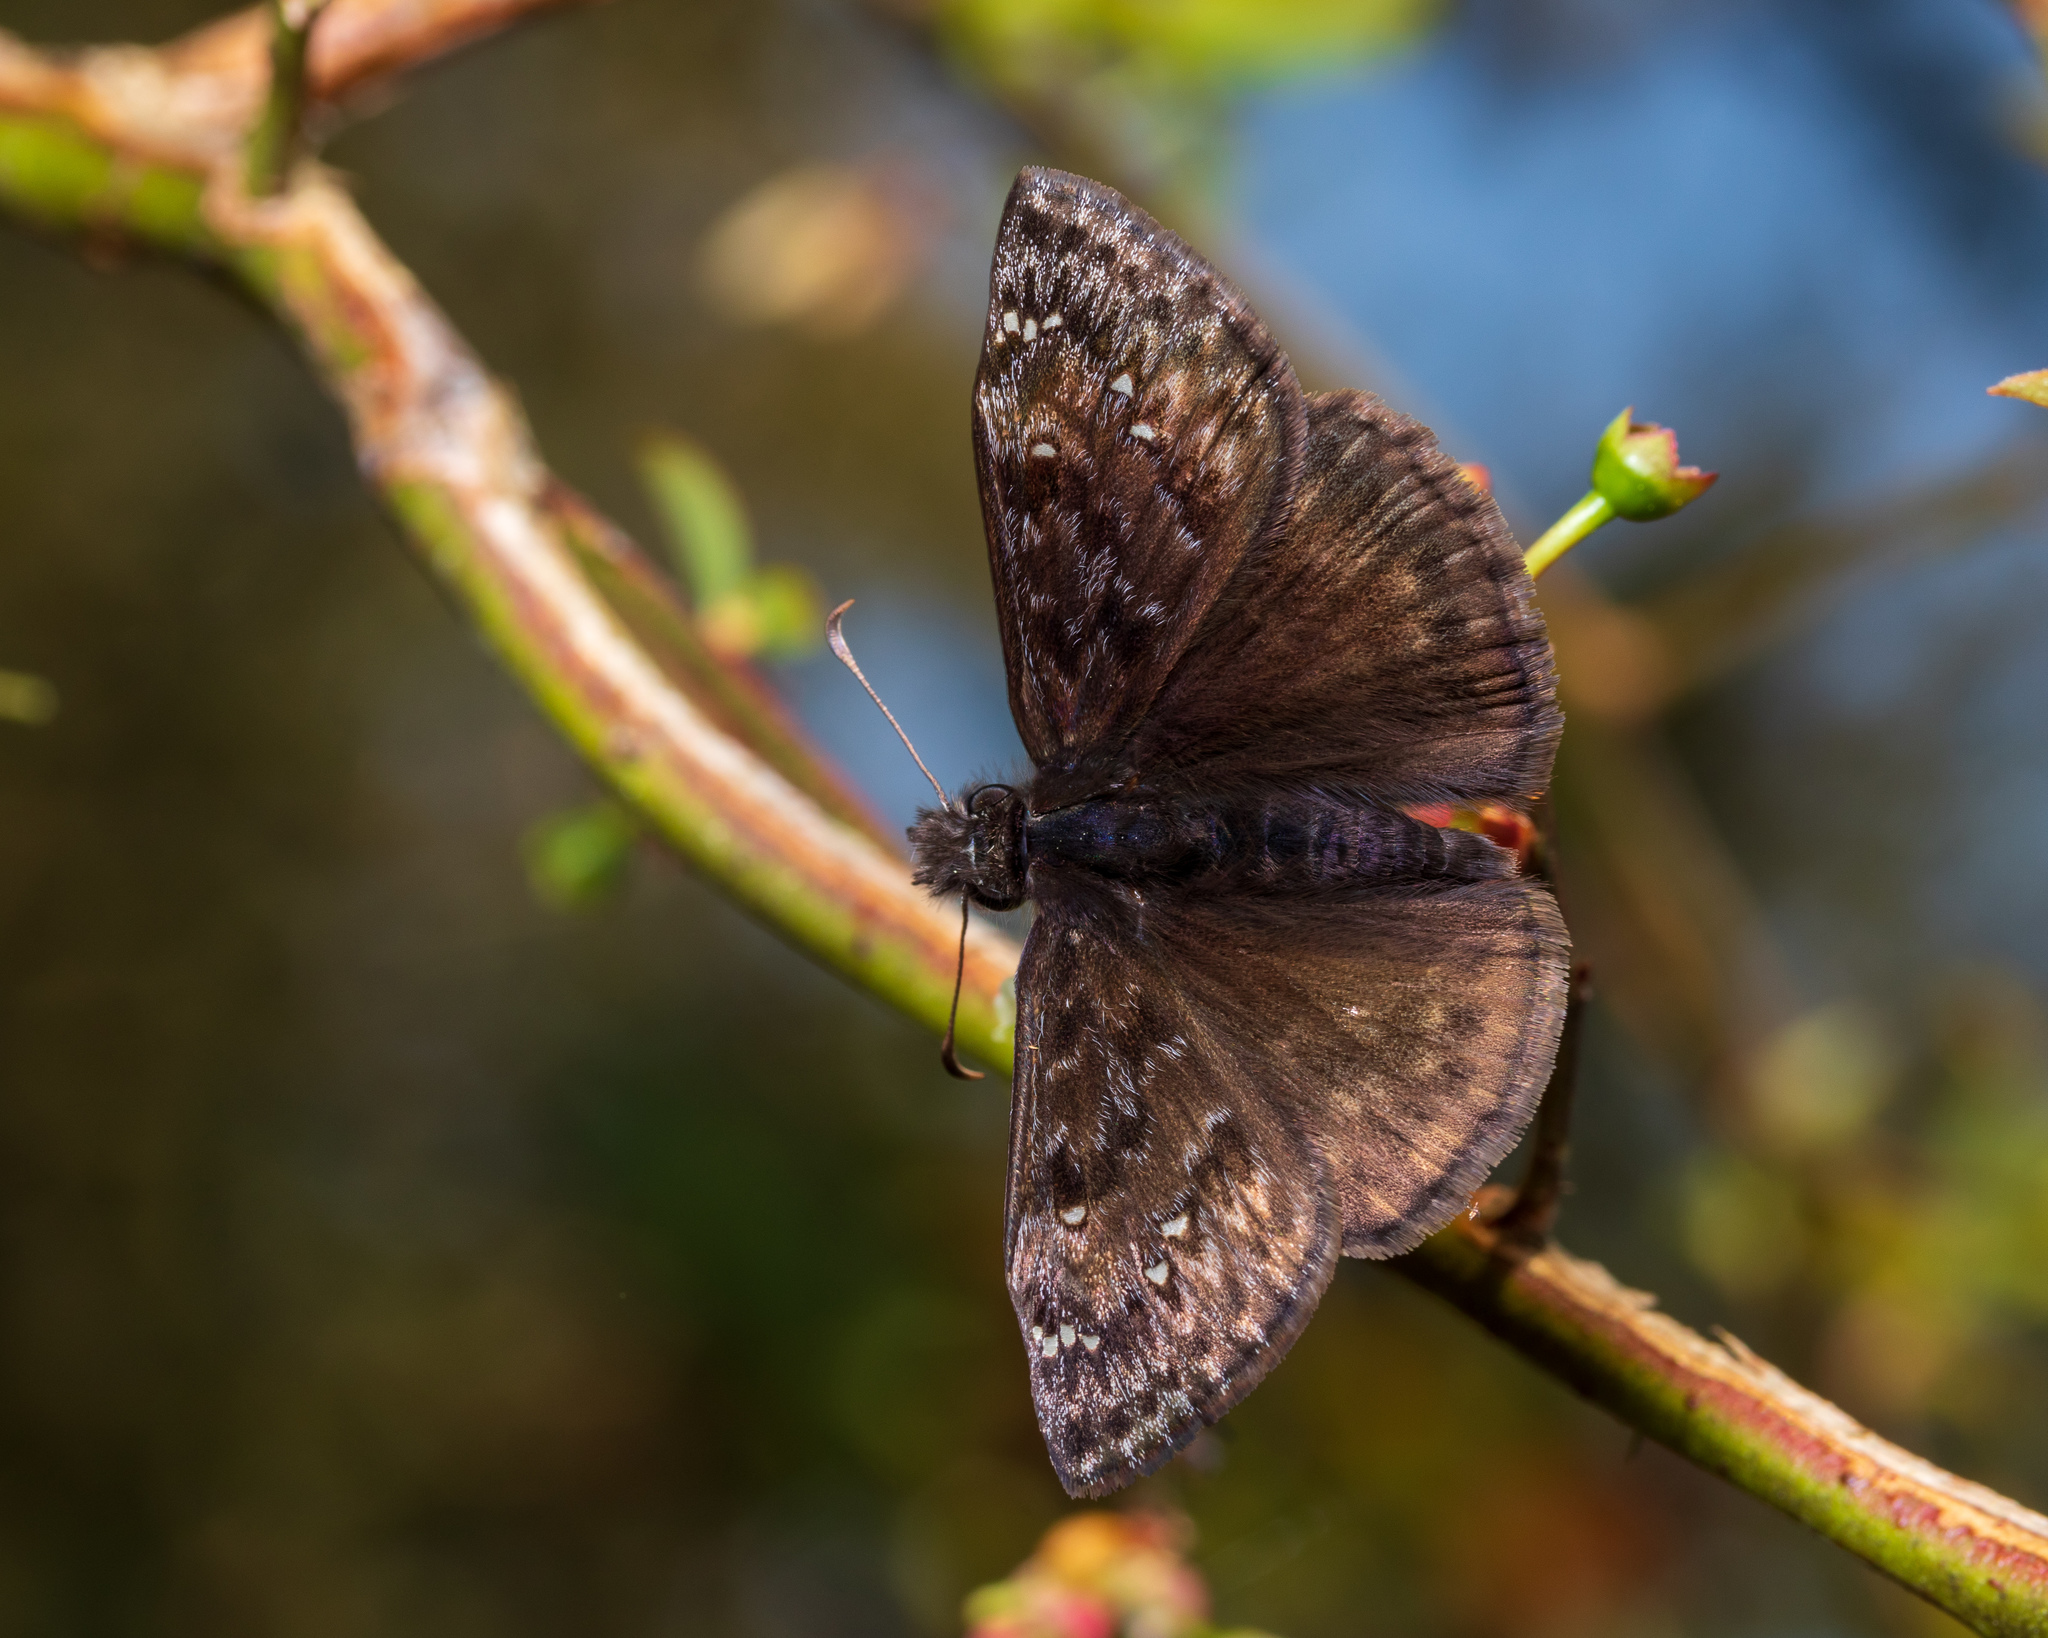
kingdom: Animalia
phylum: Arthropoda
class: Insecta
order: Lepidoptera
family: Hesperiidae
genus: Erynnis
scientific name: Erynnis juvenalis
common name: Juvenal's duskywing
